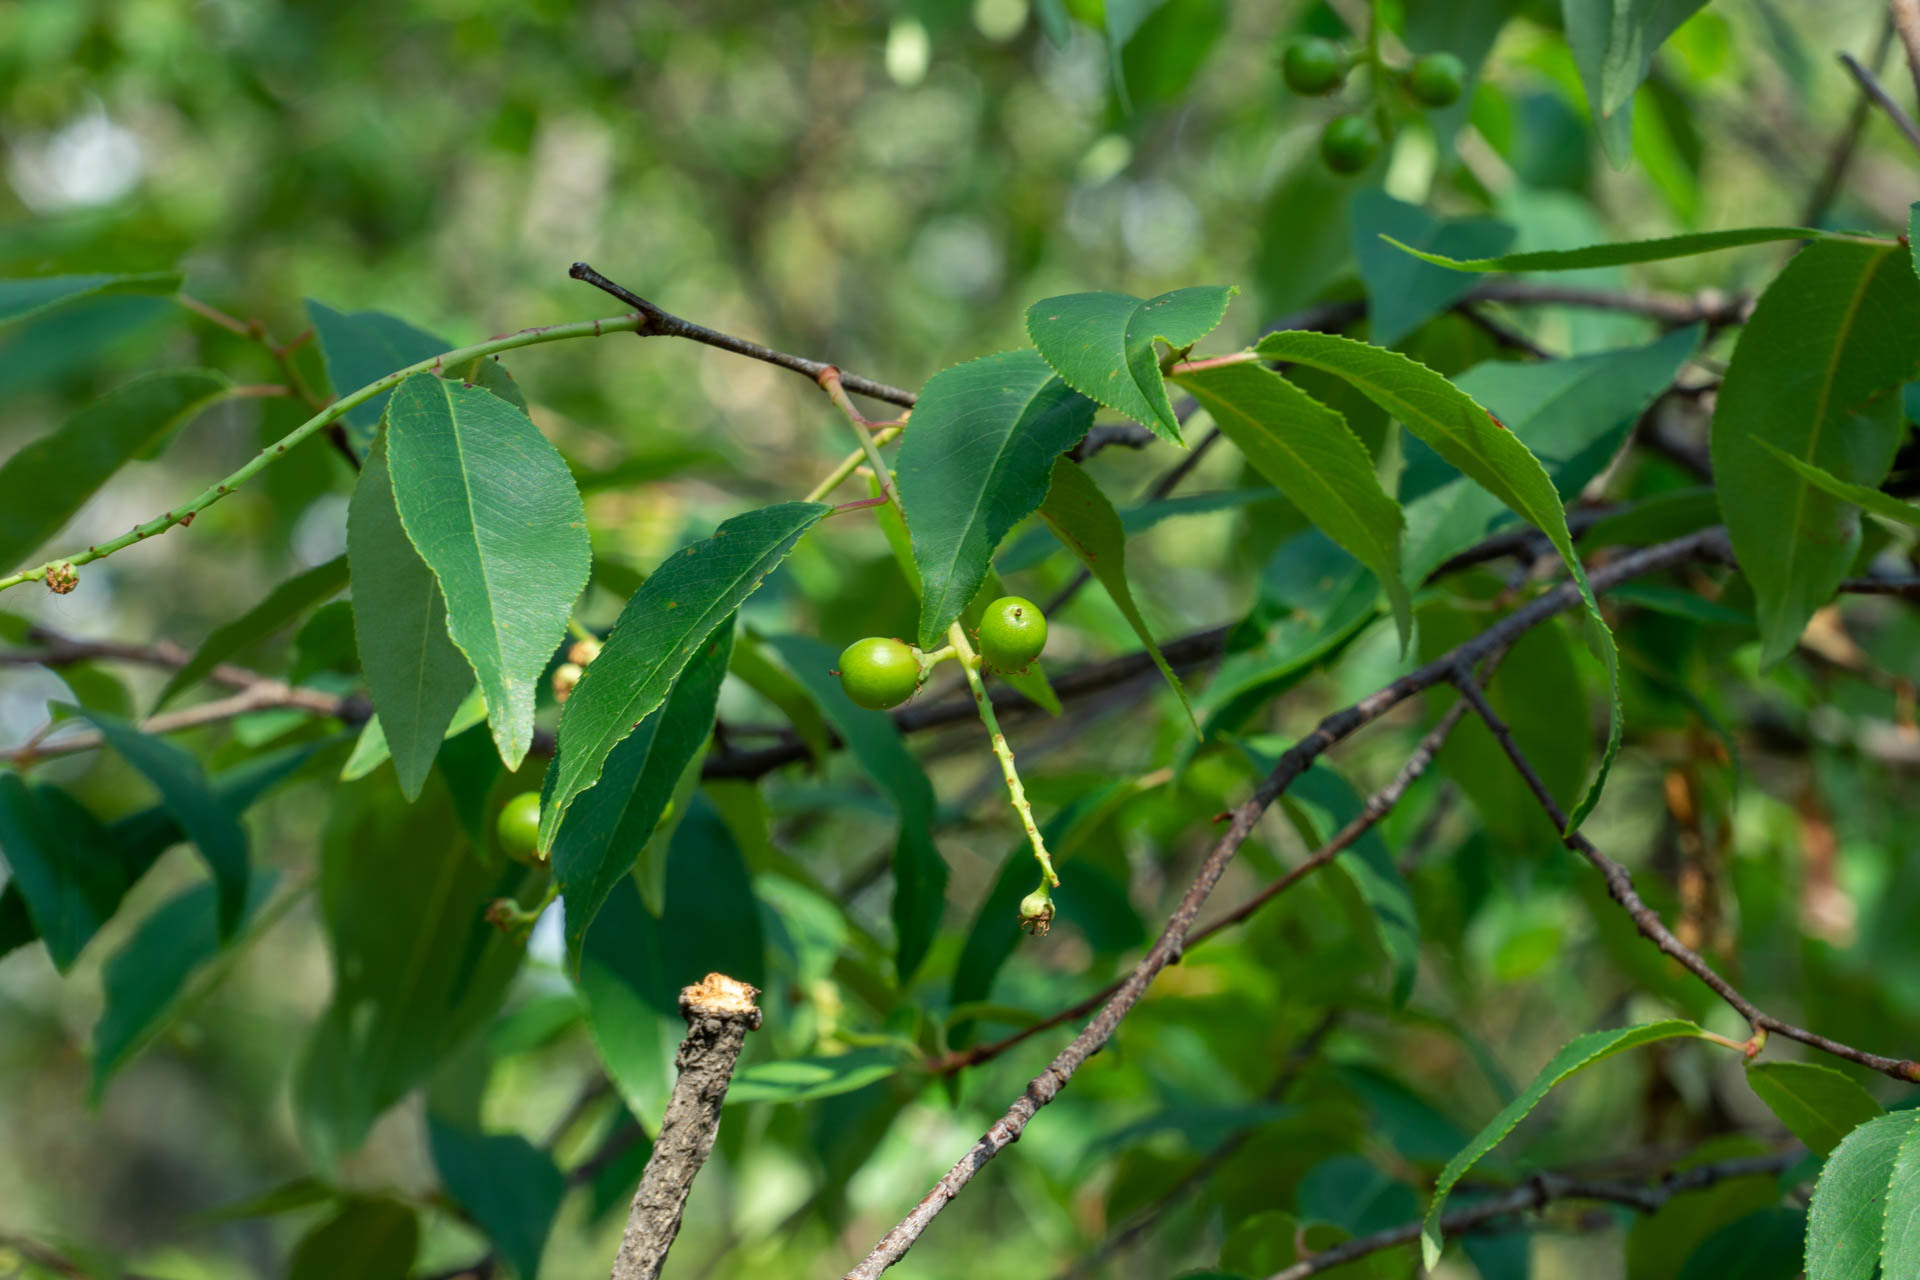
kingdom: Plantae
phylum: Tracheophyta
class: Magnoliopsida
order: Rosales
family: Rosaceae
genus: Prunus
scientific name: Prunus serotina
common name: Black cherry
